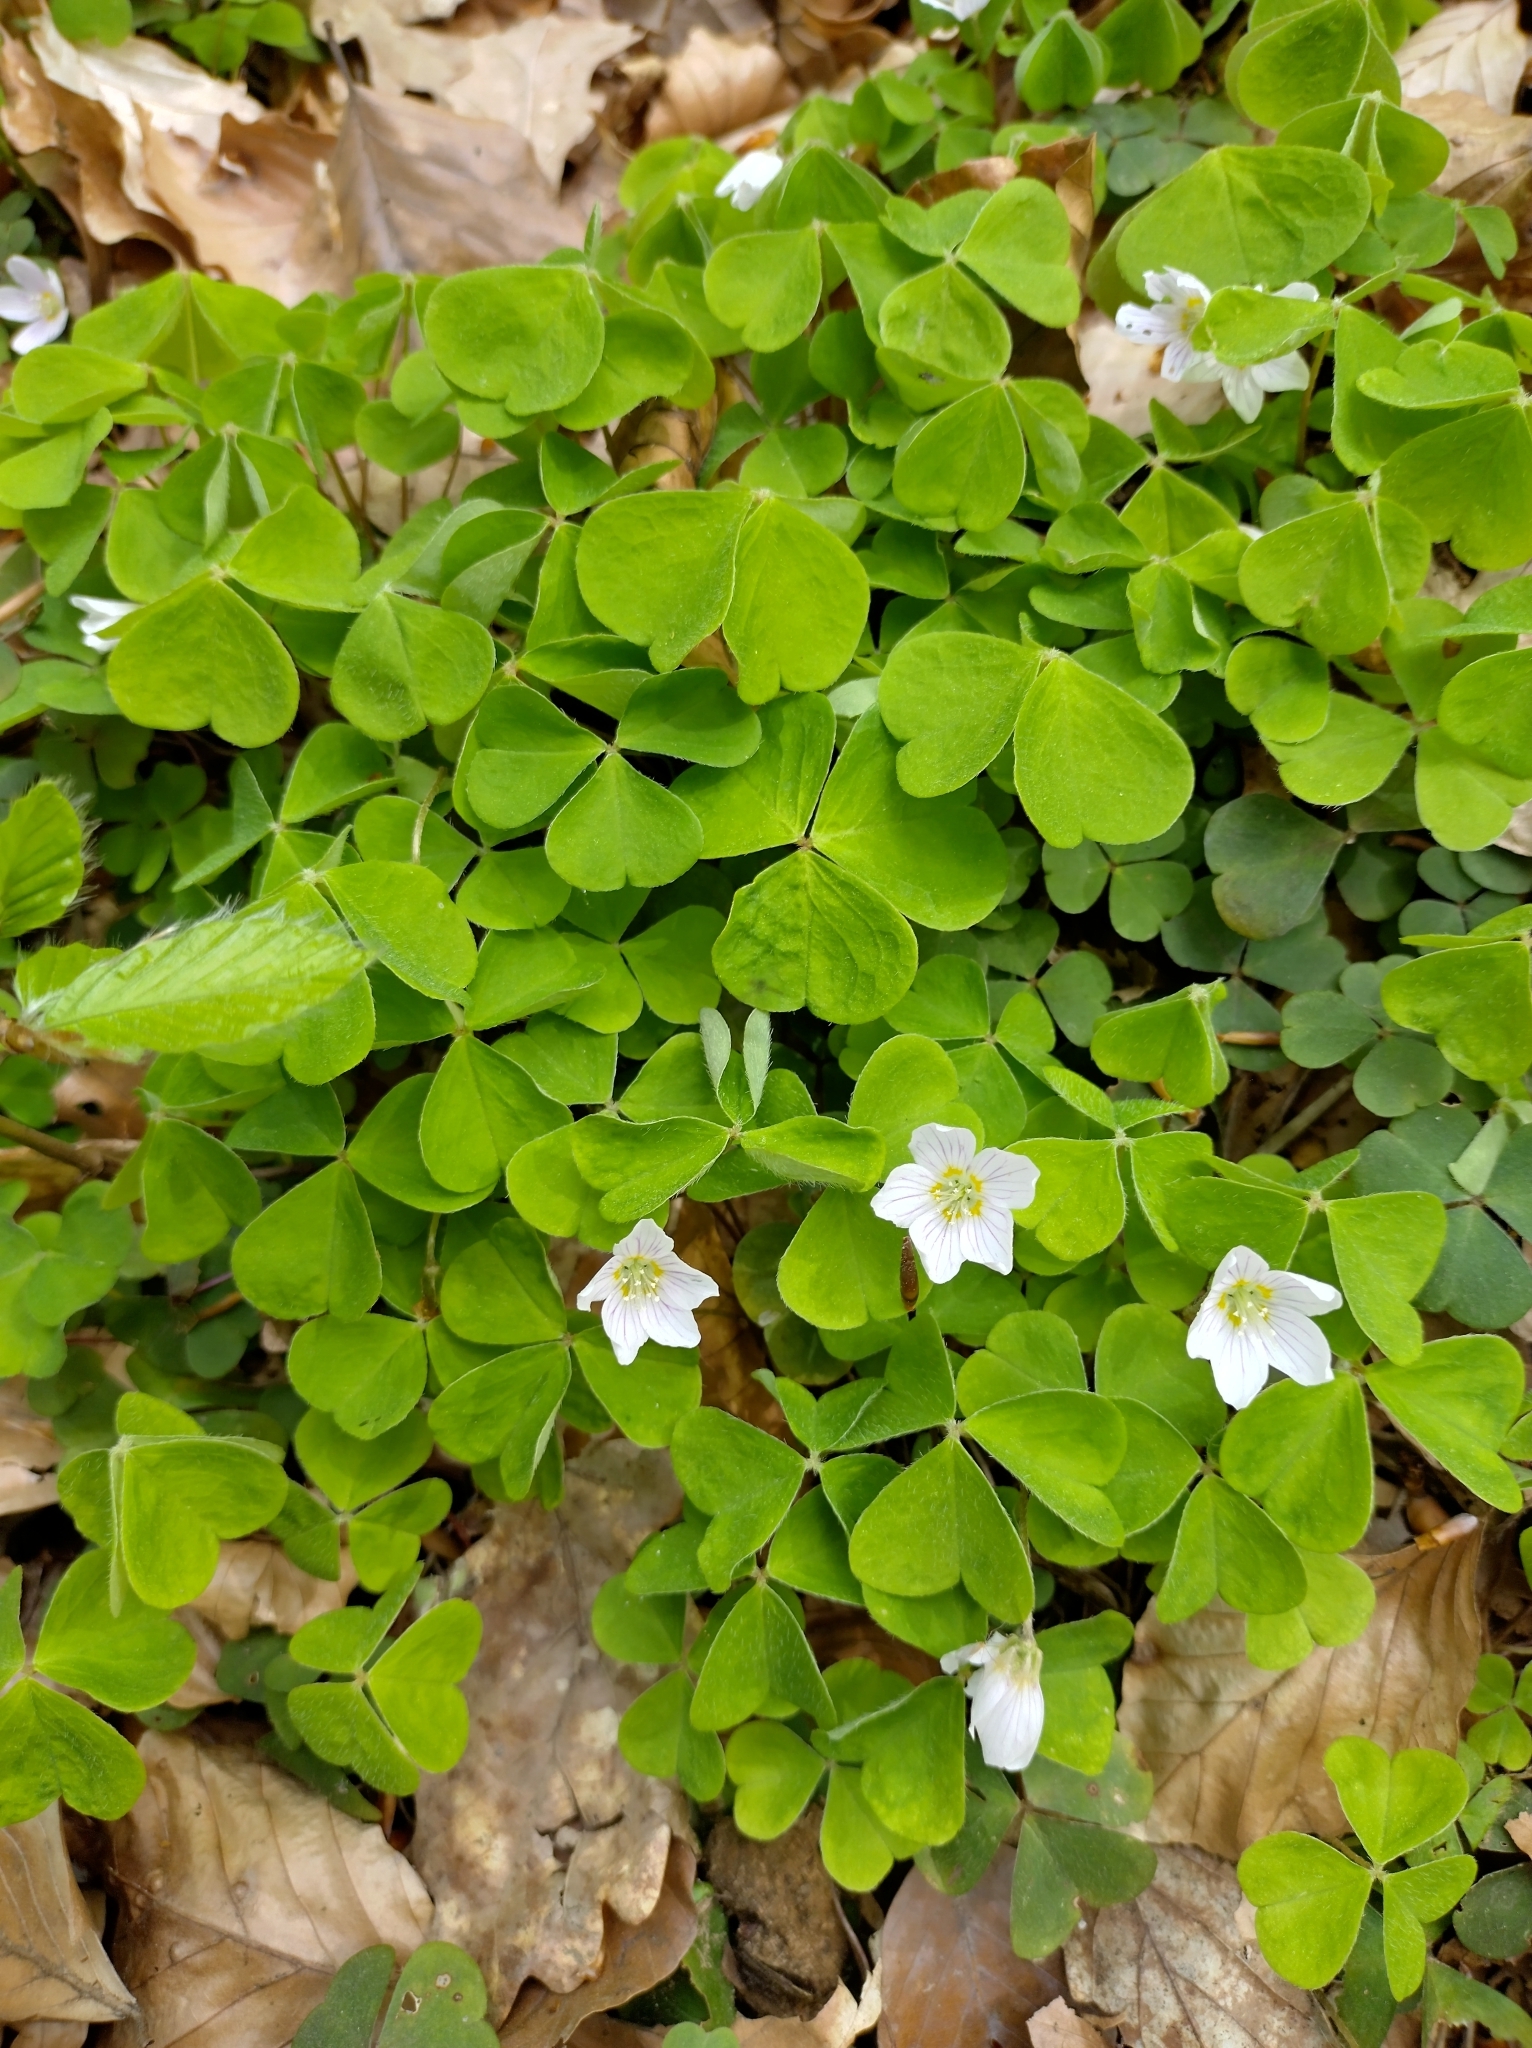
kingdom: Plantae
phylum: Tracheophyta
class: Magnoliopsida
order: Oxalidales
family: Oxalidaceae
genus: Oxalis
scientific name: Oxalis acetosella
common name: Wood-sorrel
